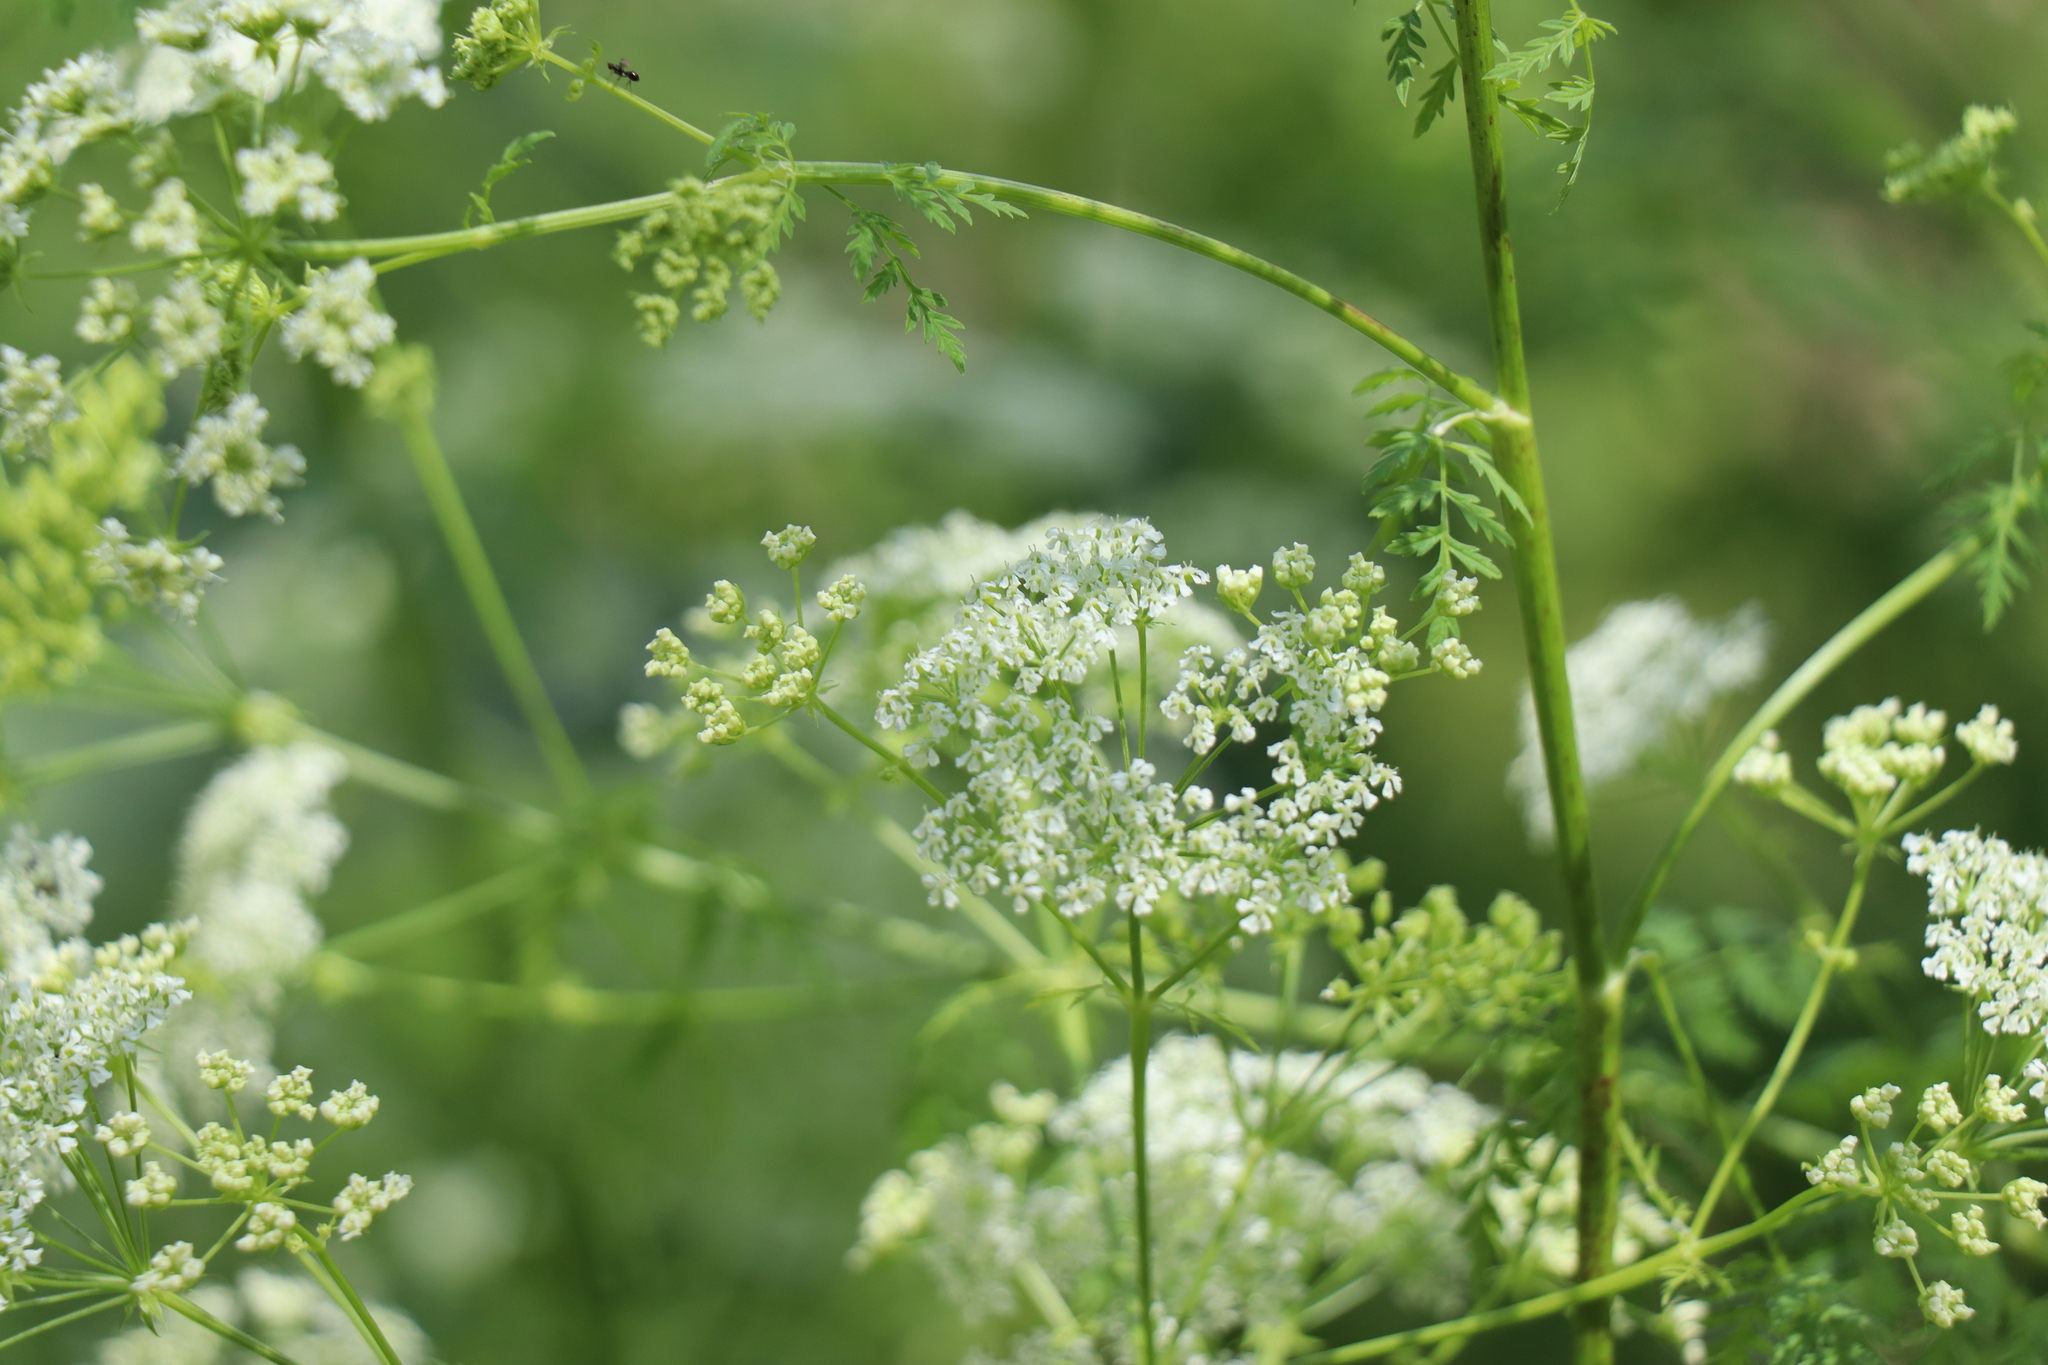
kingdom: Plantae
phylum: Tracheophyta
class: Magnoliopsida
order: Apiales
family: Apiaceae
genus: Conium
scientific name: Conium maculatum
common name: Hemlock
